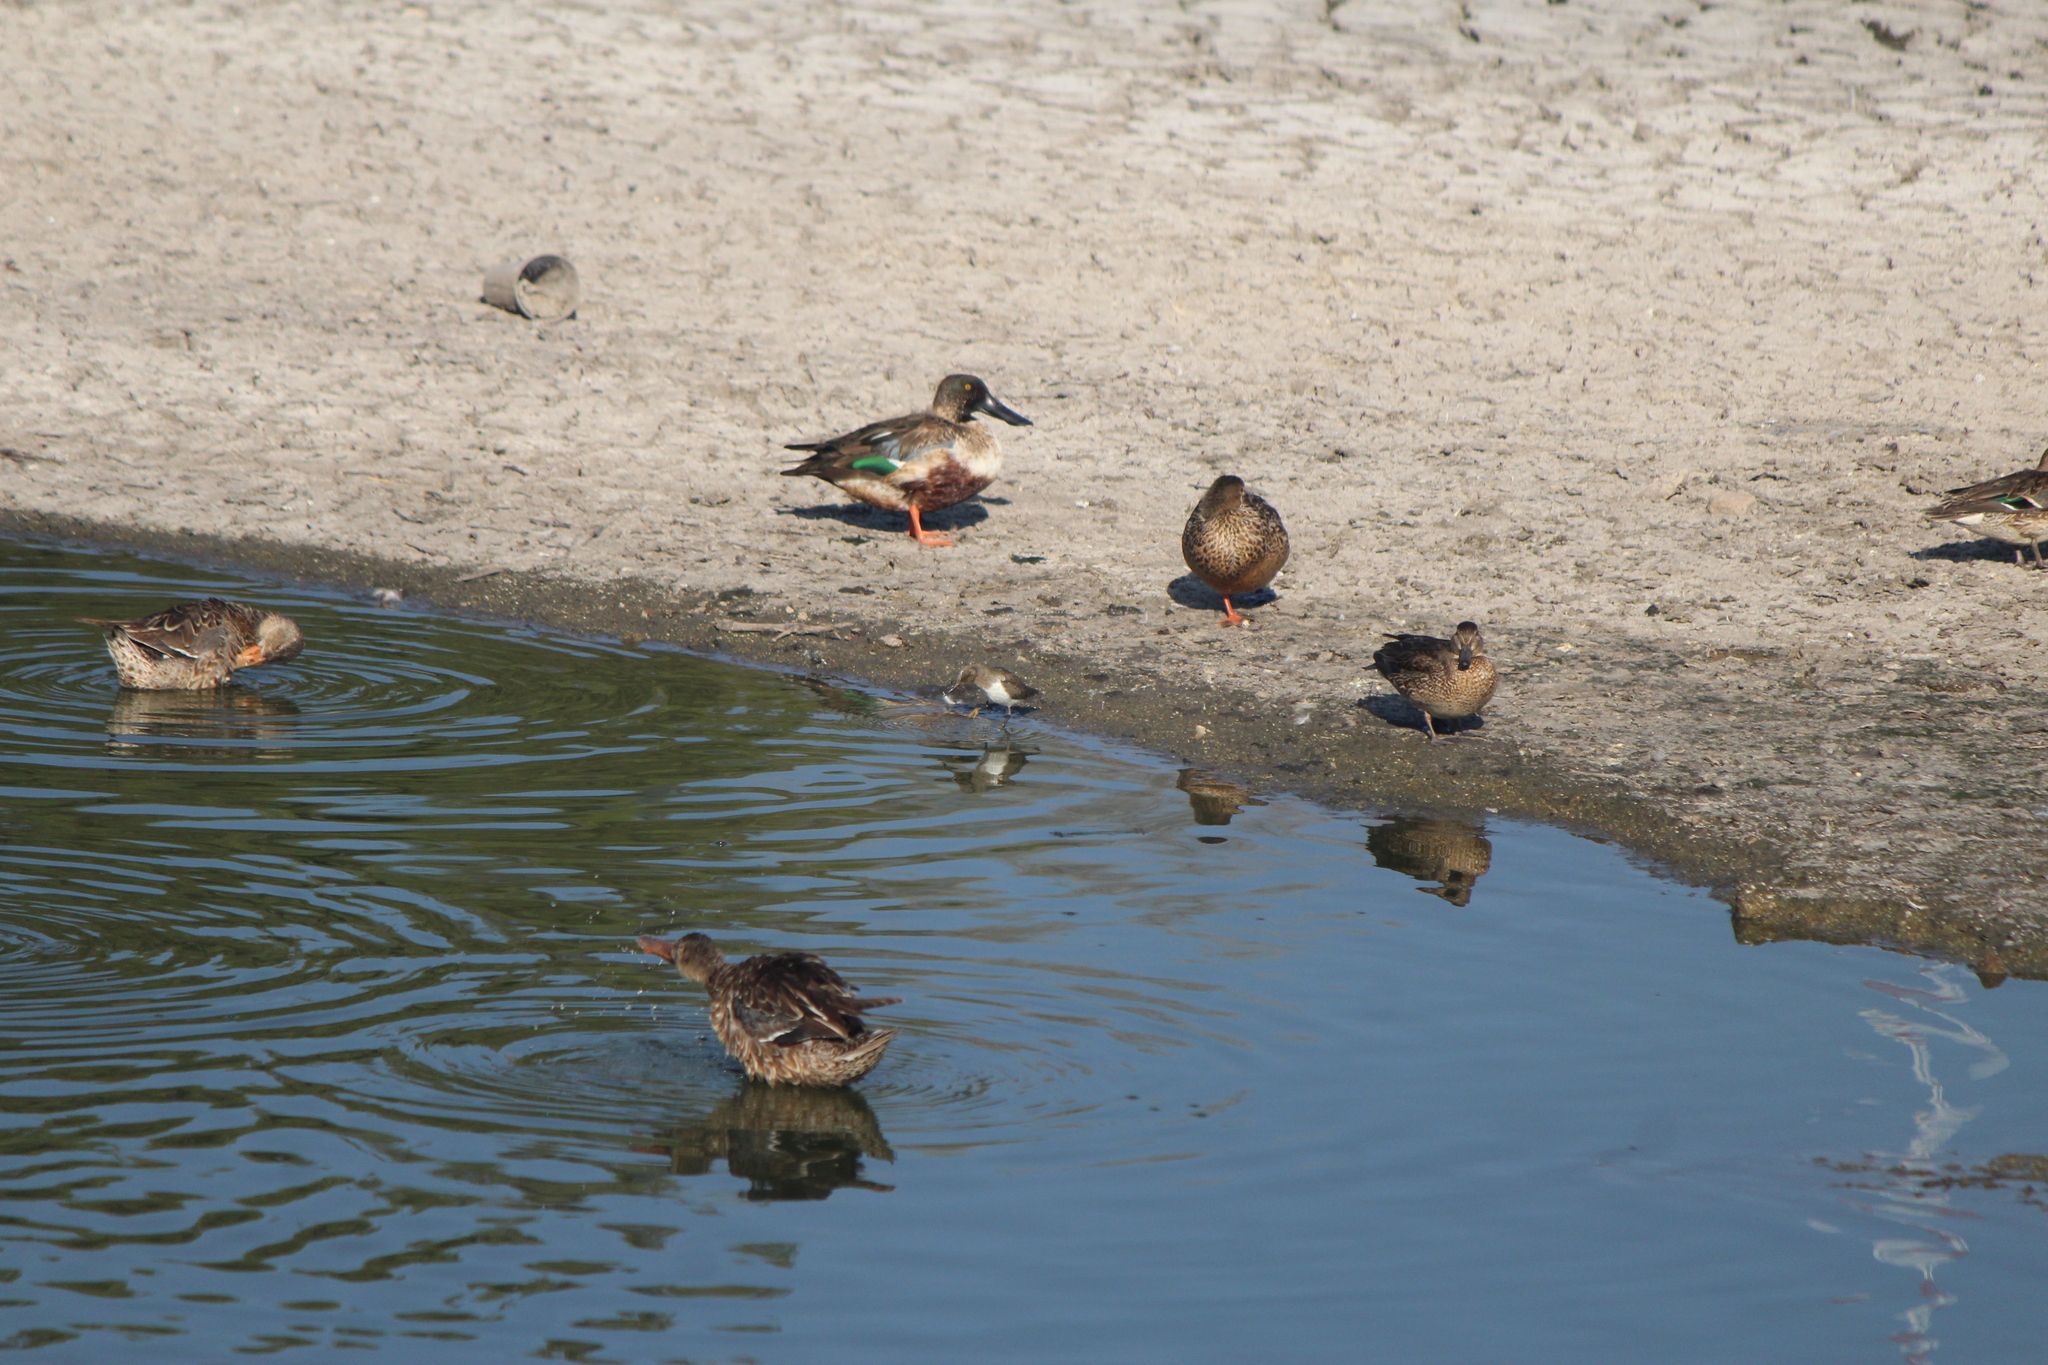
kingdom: Animalia
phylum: Chordata
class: Aves
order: Charadriiformes
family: Scolopacidae
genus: Actitis
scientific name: Actitis macularius
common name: Spotted sandpiper
